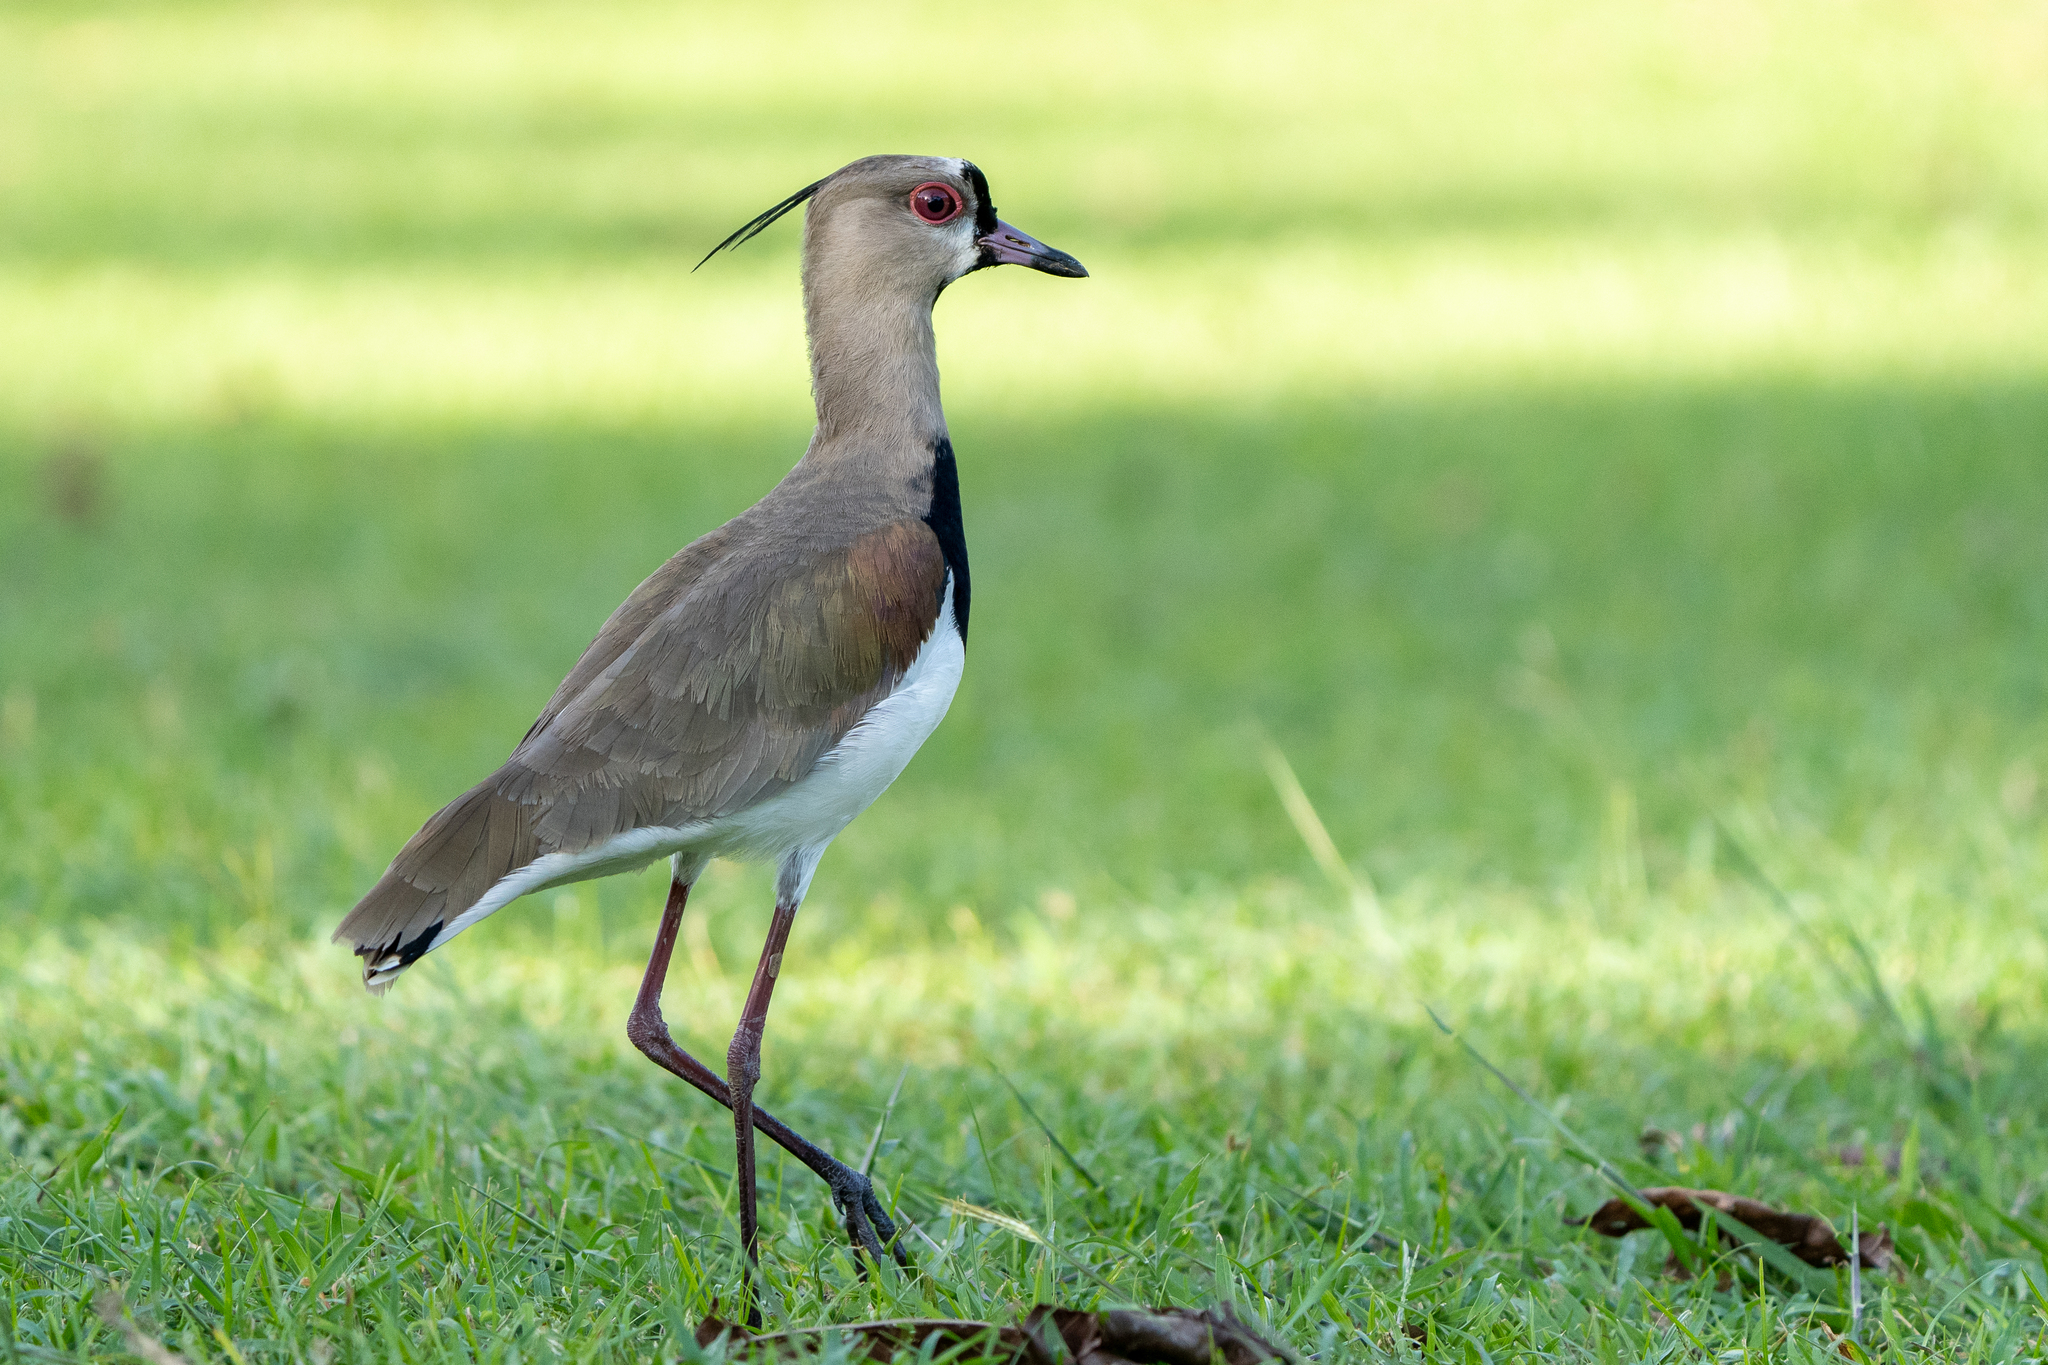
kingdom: Animalia
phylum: Chordata
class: Aves
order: Charadriiformes
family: Charadriidae
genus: Vanellus
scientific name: Vanellus chilensis
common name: Southern lapwing
